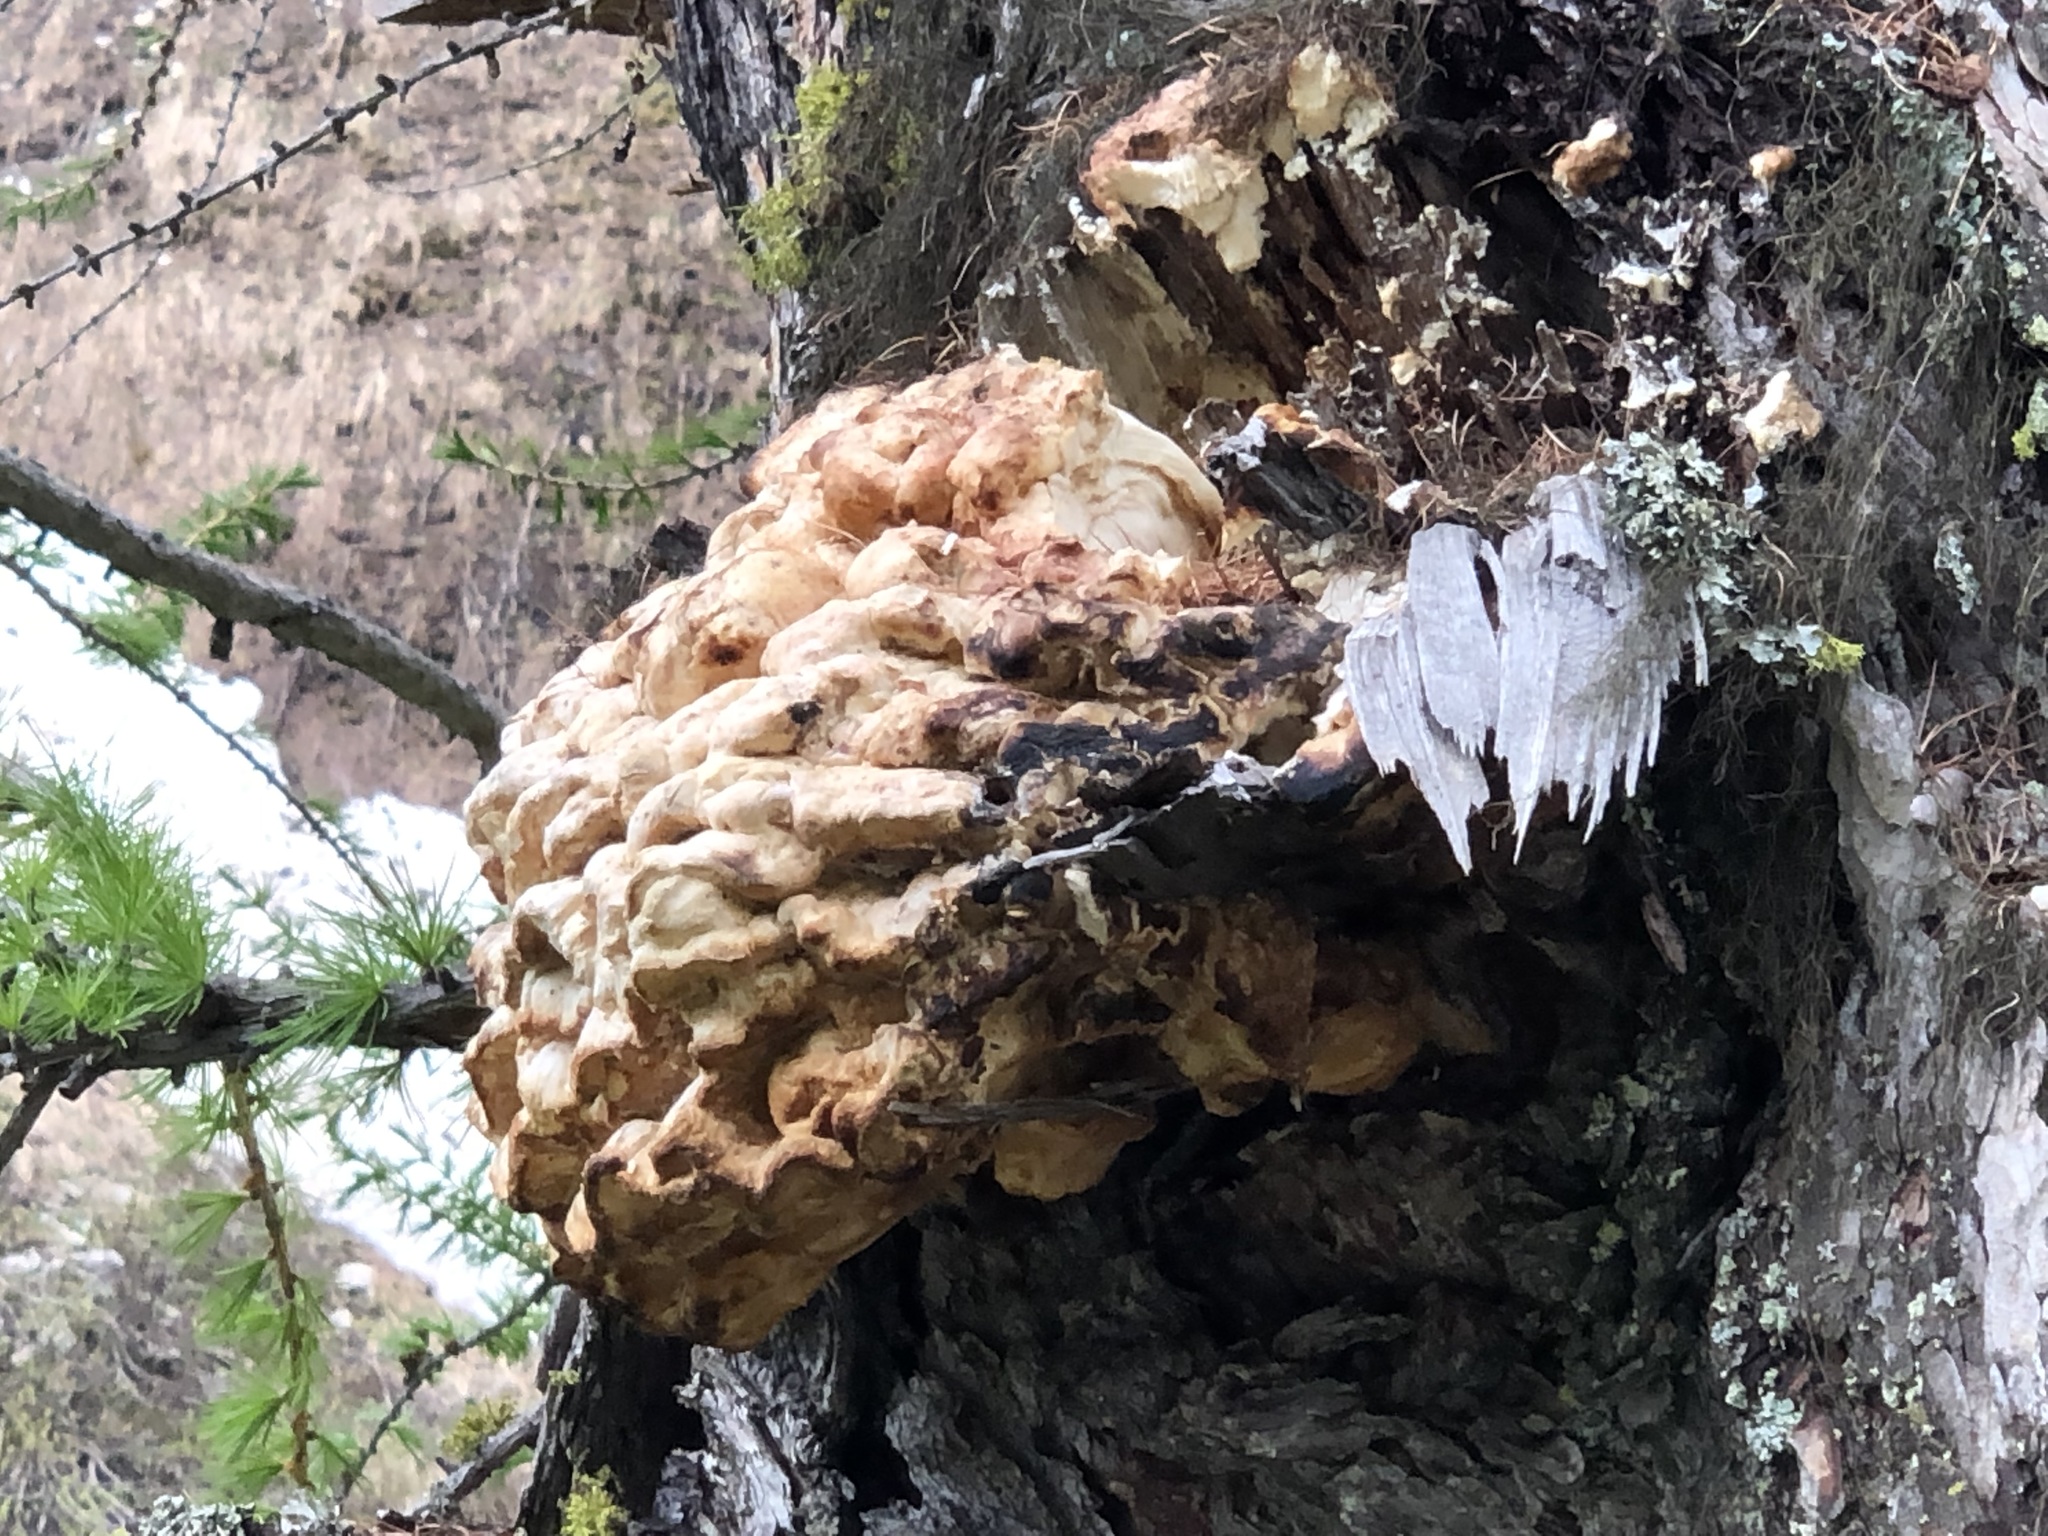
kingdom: Fungi
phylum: Basidiomycota
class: Agaricomycetes
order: Polyporales
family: Laetiporaceae
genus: Laetiporus
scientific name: Laetiporus montanus
